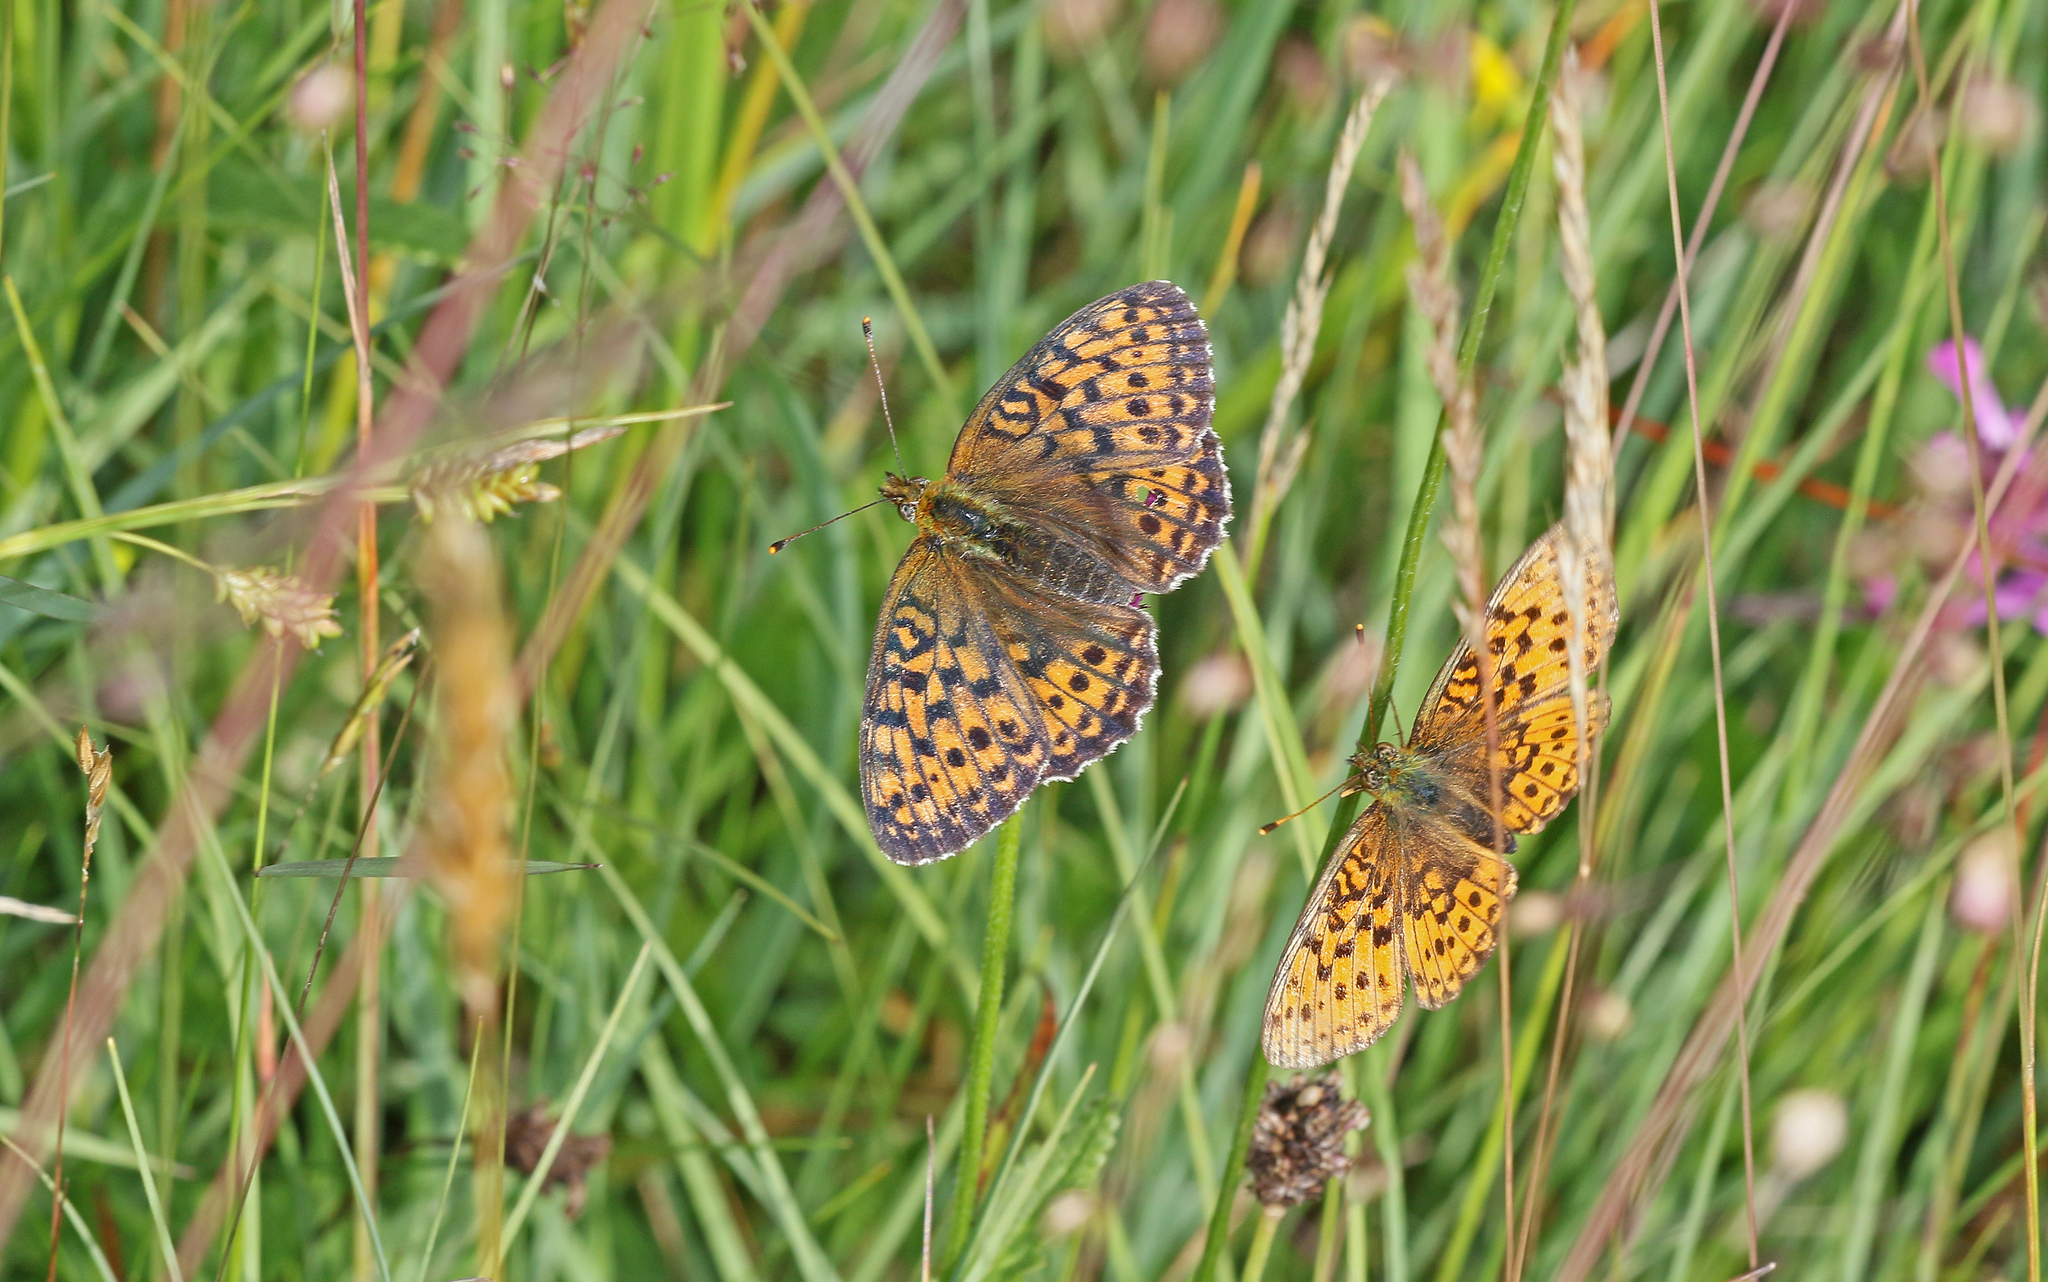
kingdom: Animalia
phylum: Arthropoda
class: Insecta
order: Lepidoptera
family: Nymphalidae
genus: Brenthis
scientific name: Brenthis ino
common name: Lesser marbled fritillary
